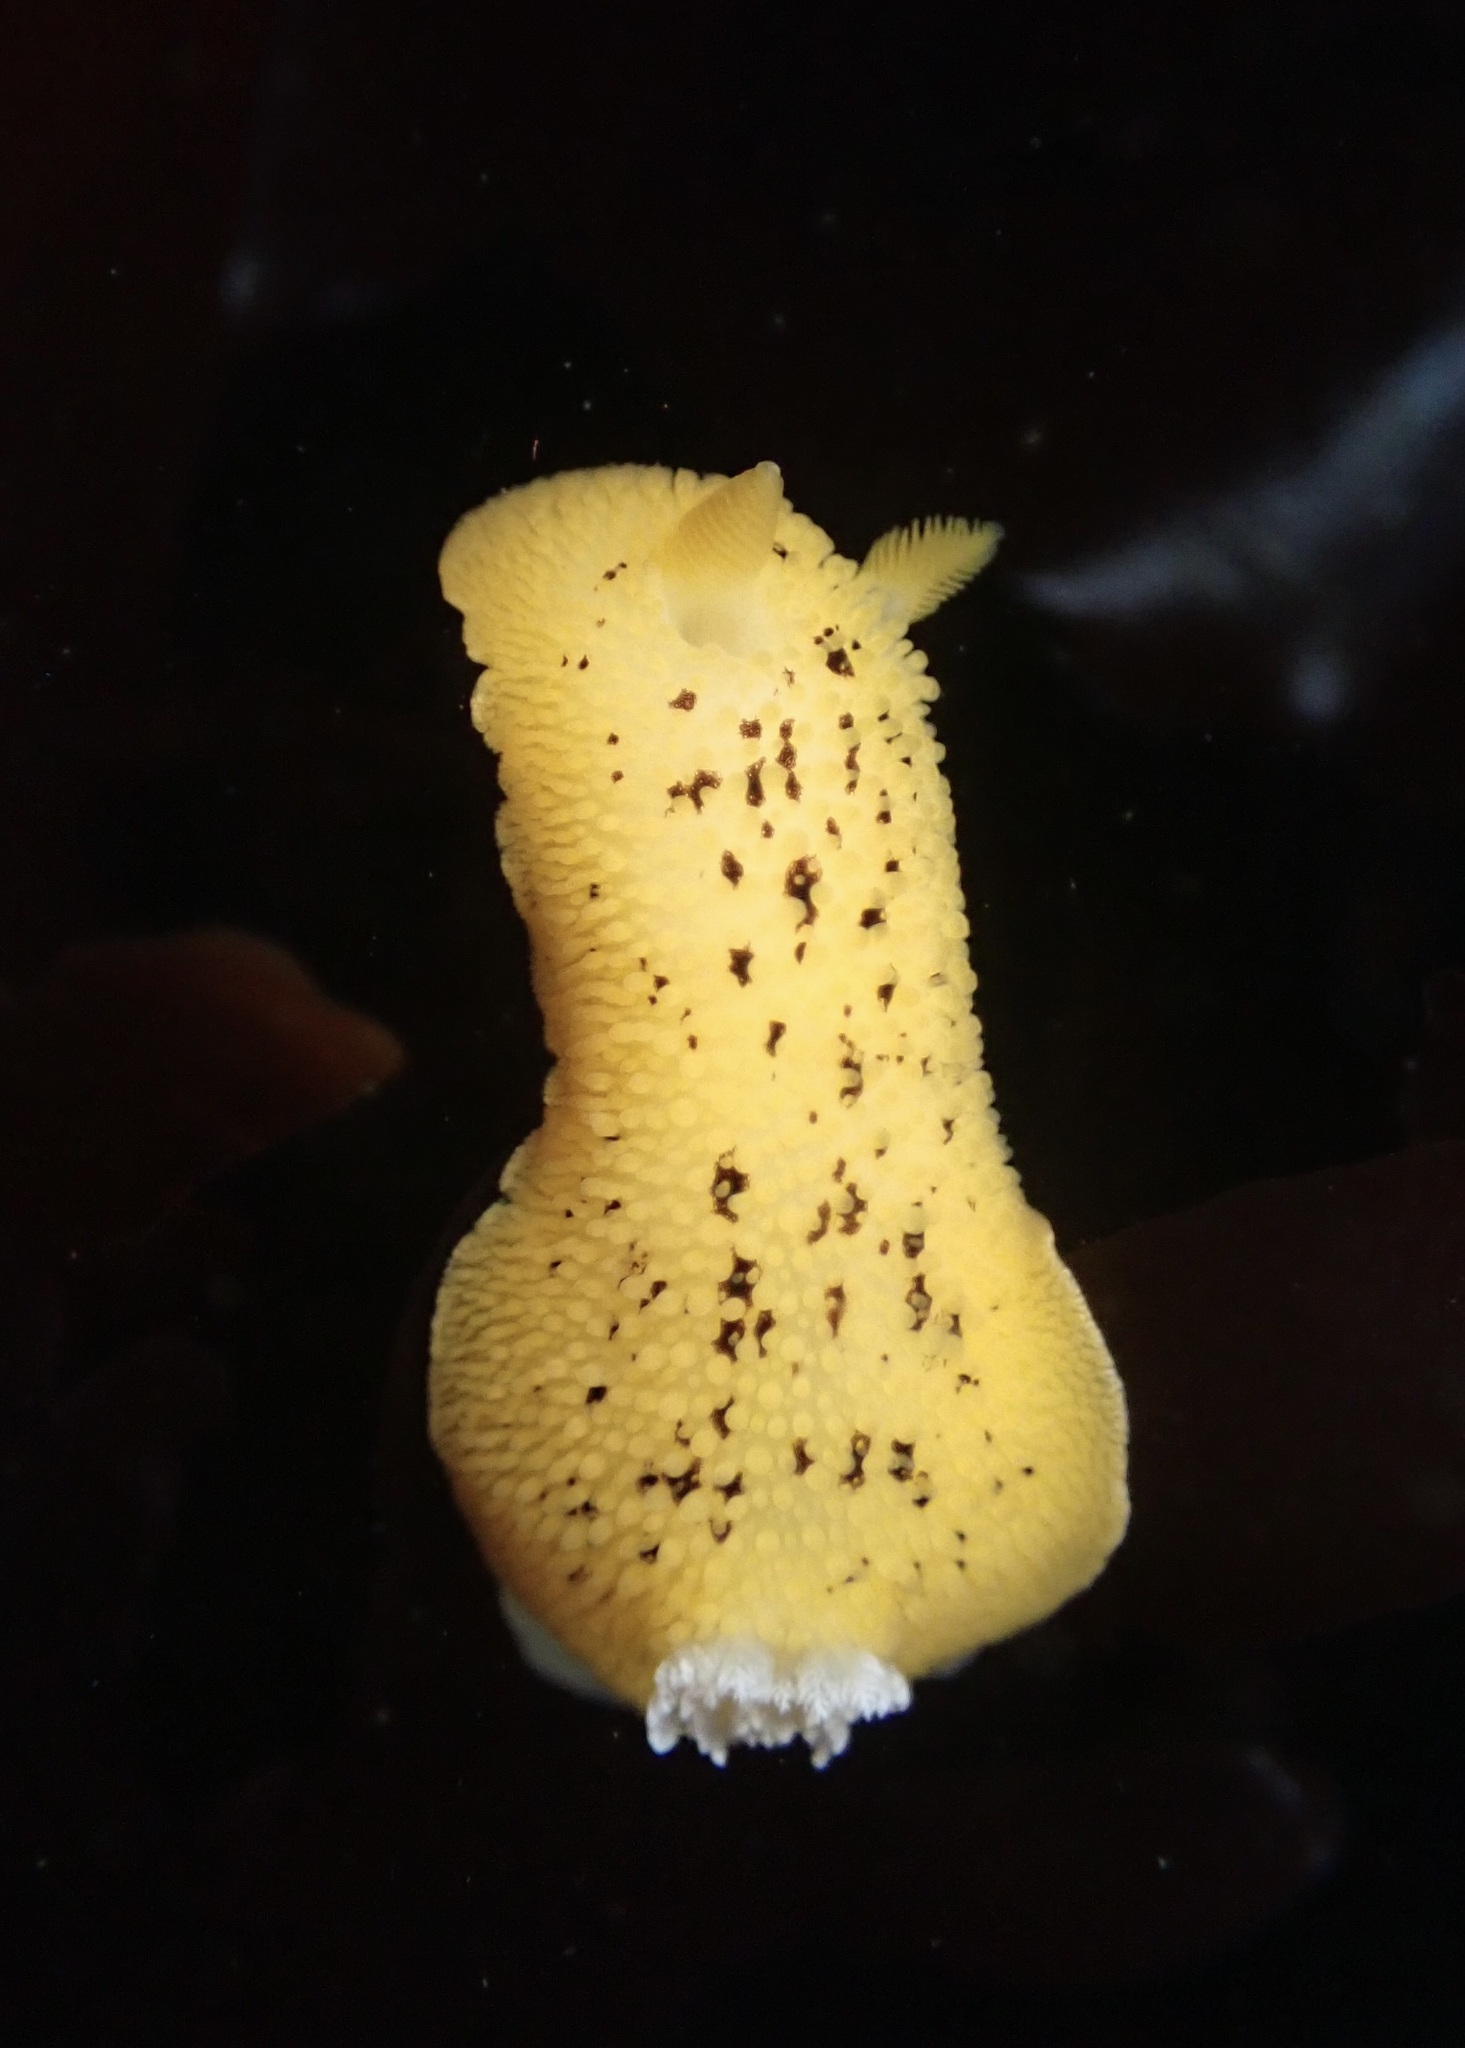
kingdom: Animalia
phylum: Mollusca
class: Gastropoda
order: Nudibranchia
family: Discodorididae
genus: Peltodoris
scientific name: Peltodoris nobilis
